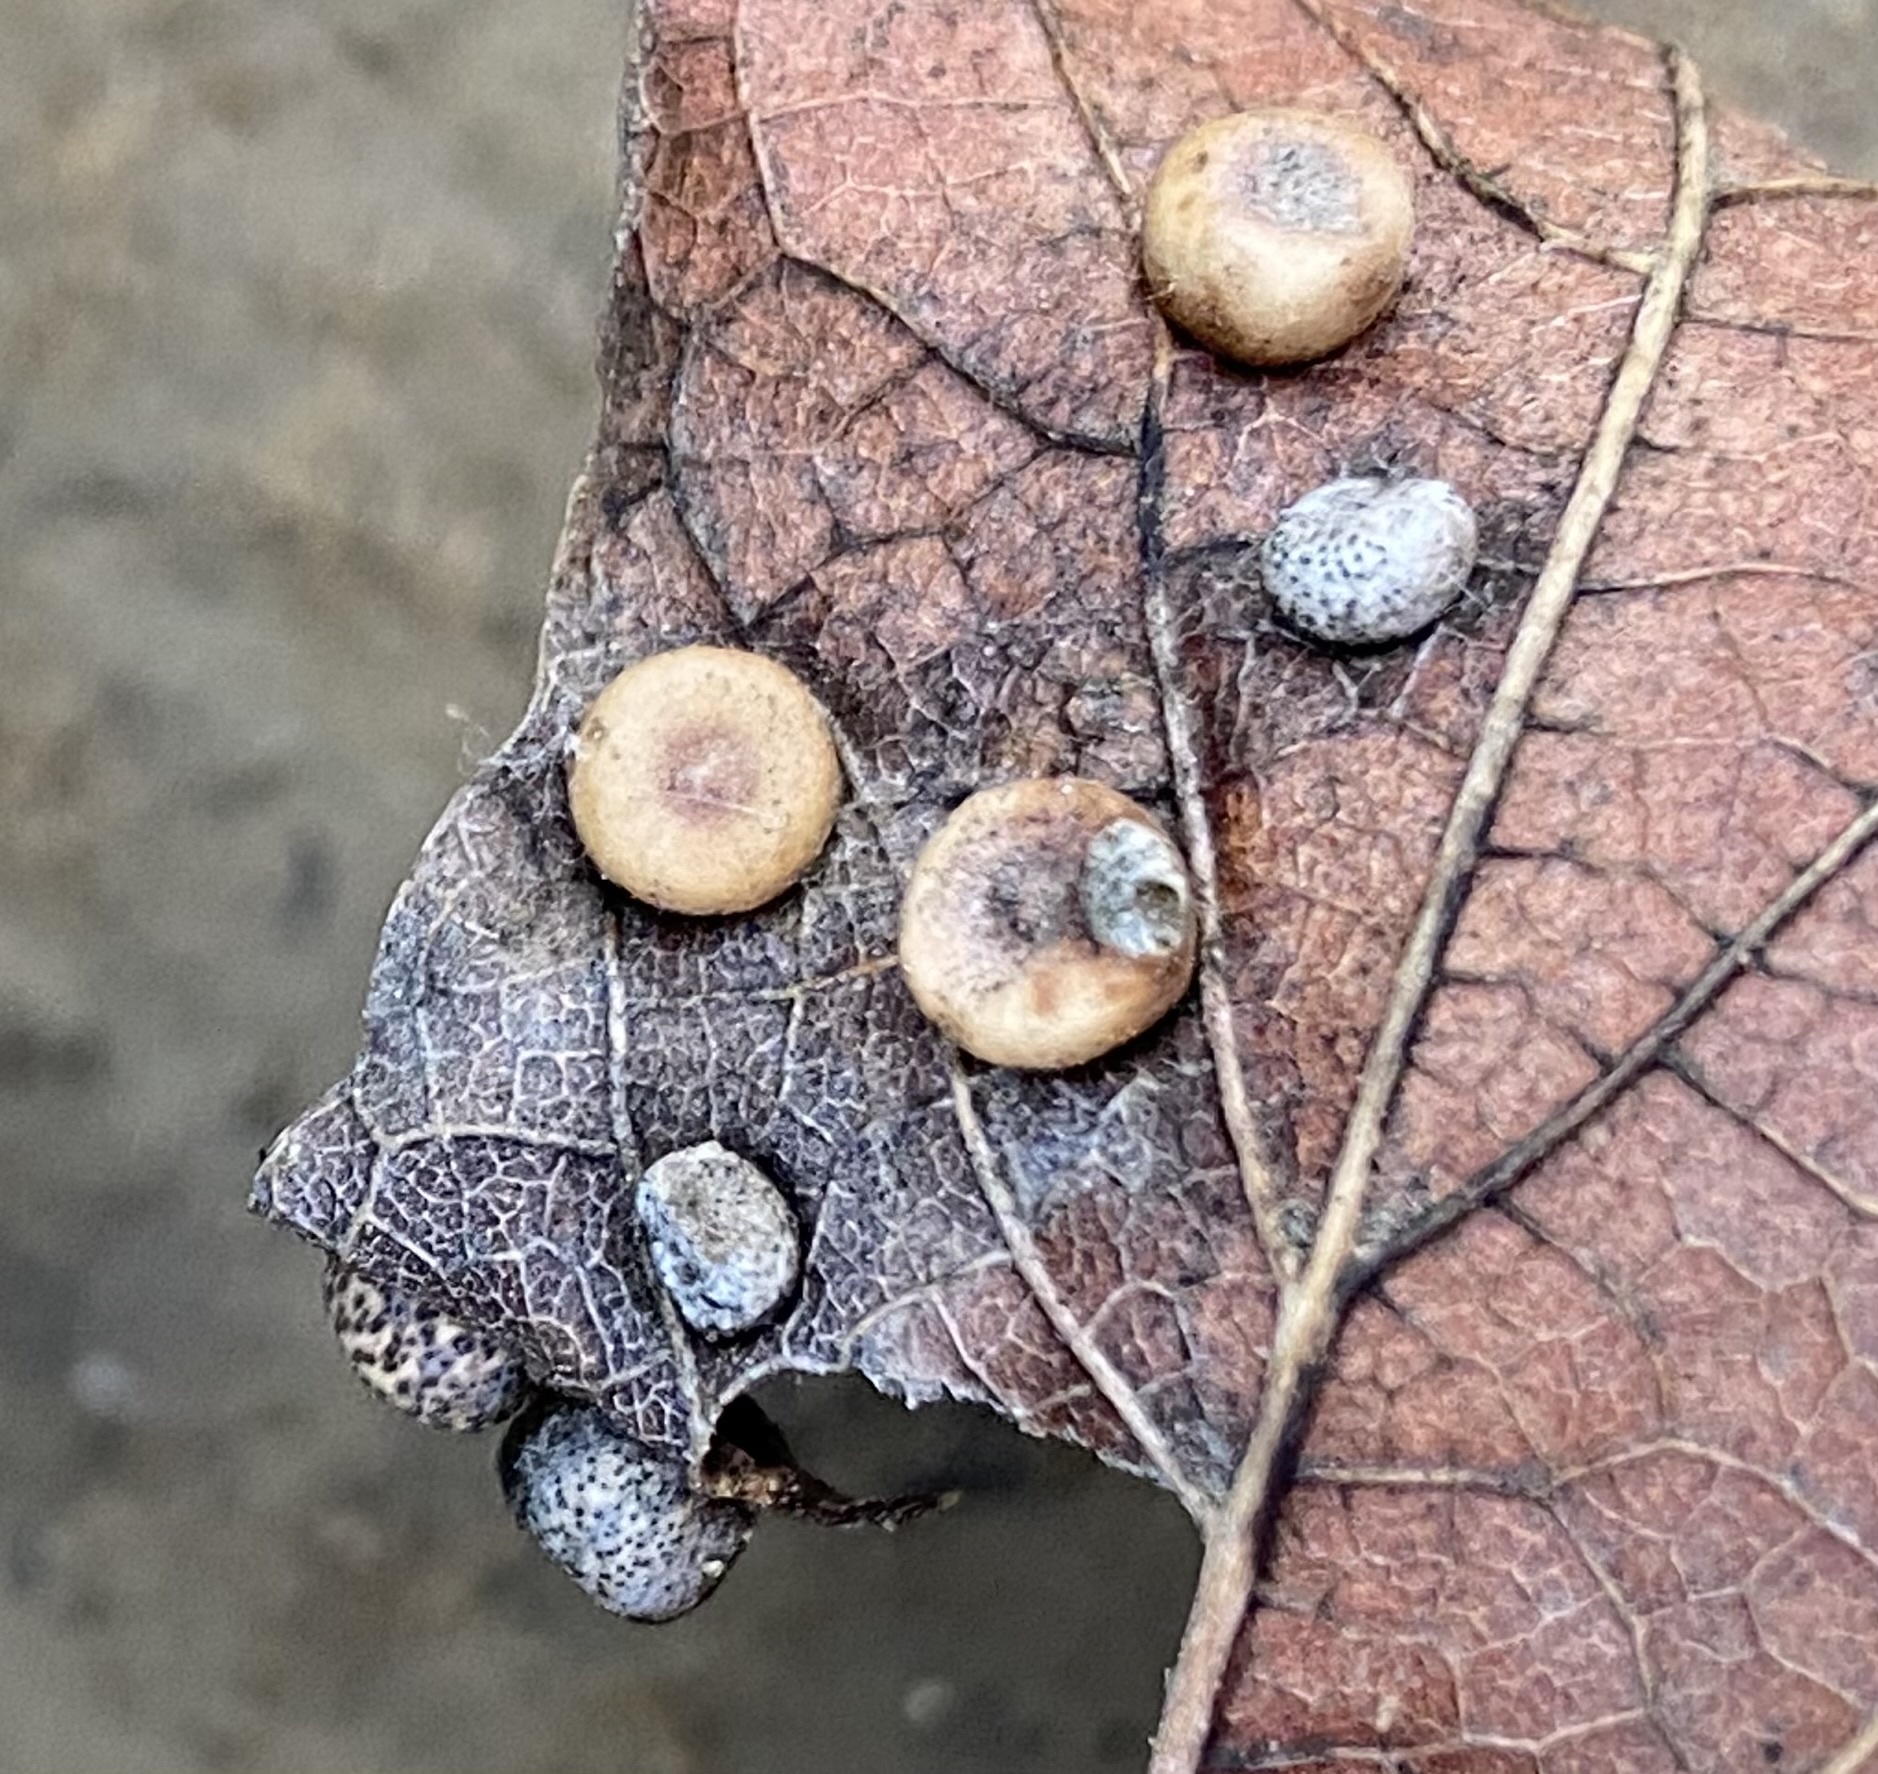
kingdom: Animalia
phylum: Arthropoda
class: Insecta
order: Hemiptera
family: Aphalaridae
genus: Pachypsylla
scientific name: Pachypsylla celtidismamma
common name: Hackberry nipplegall psyllid
